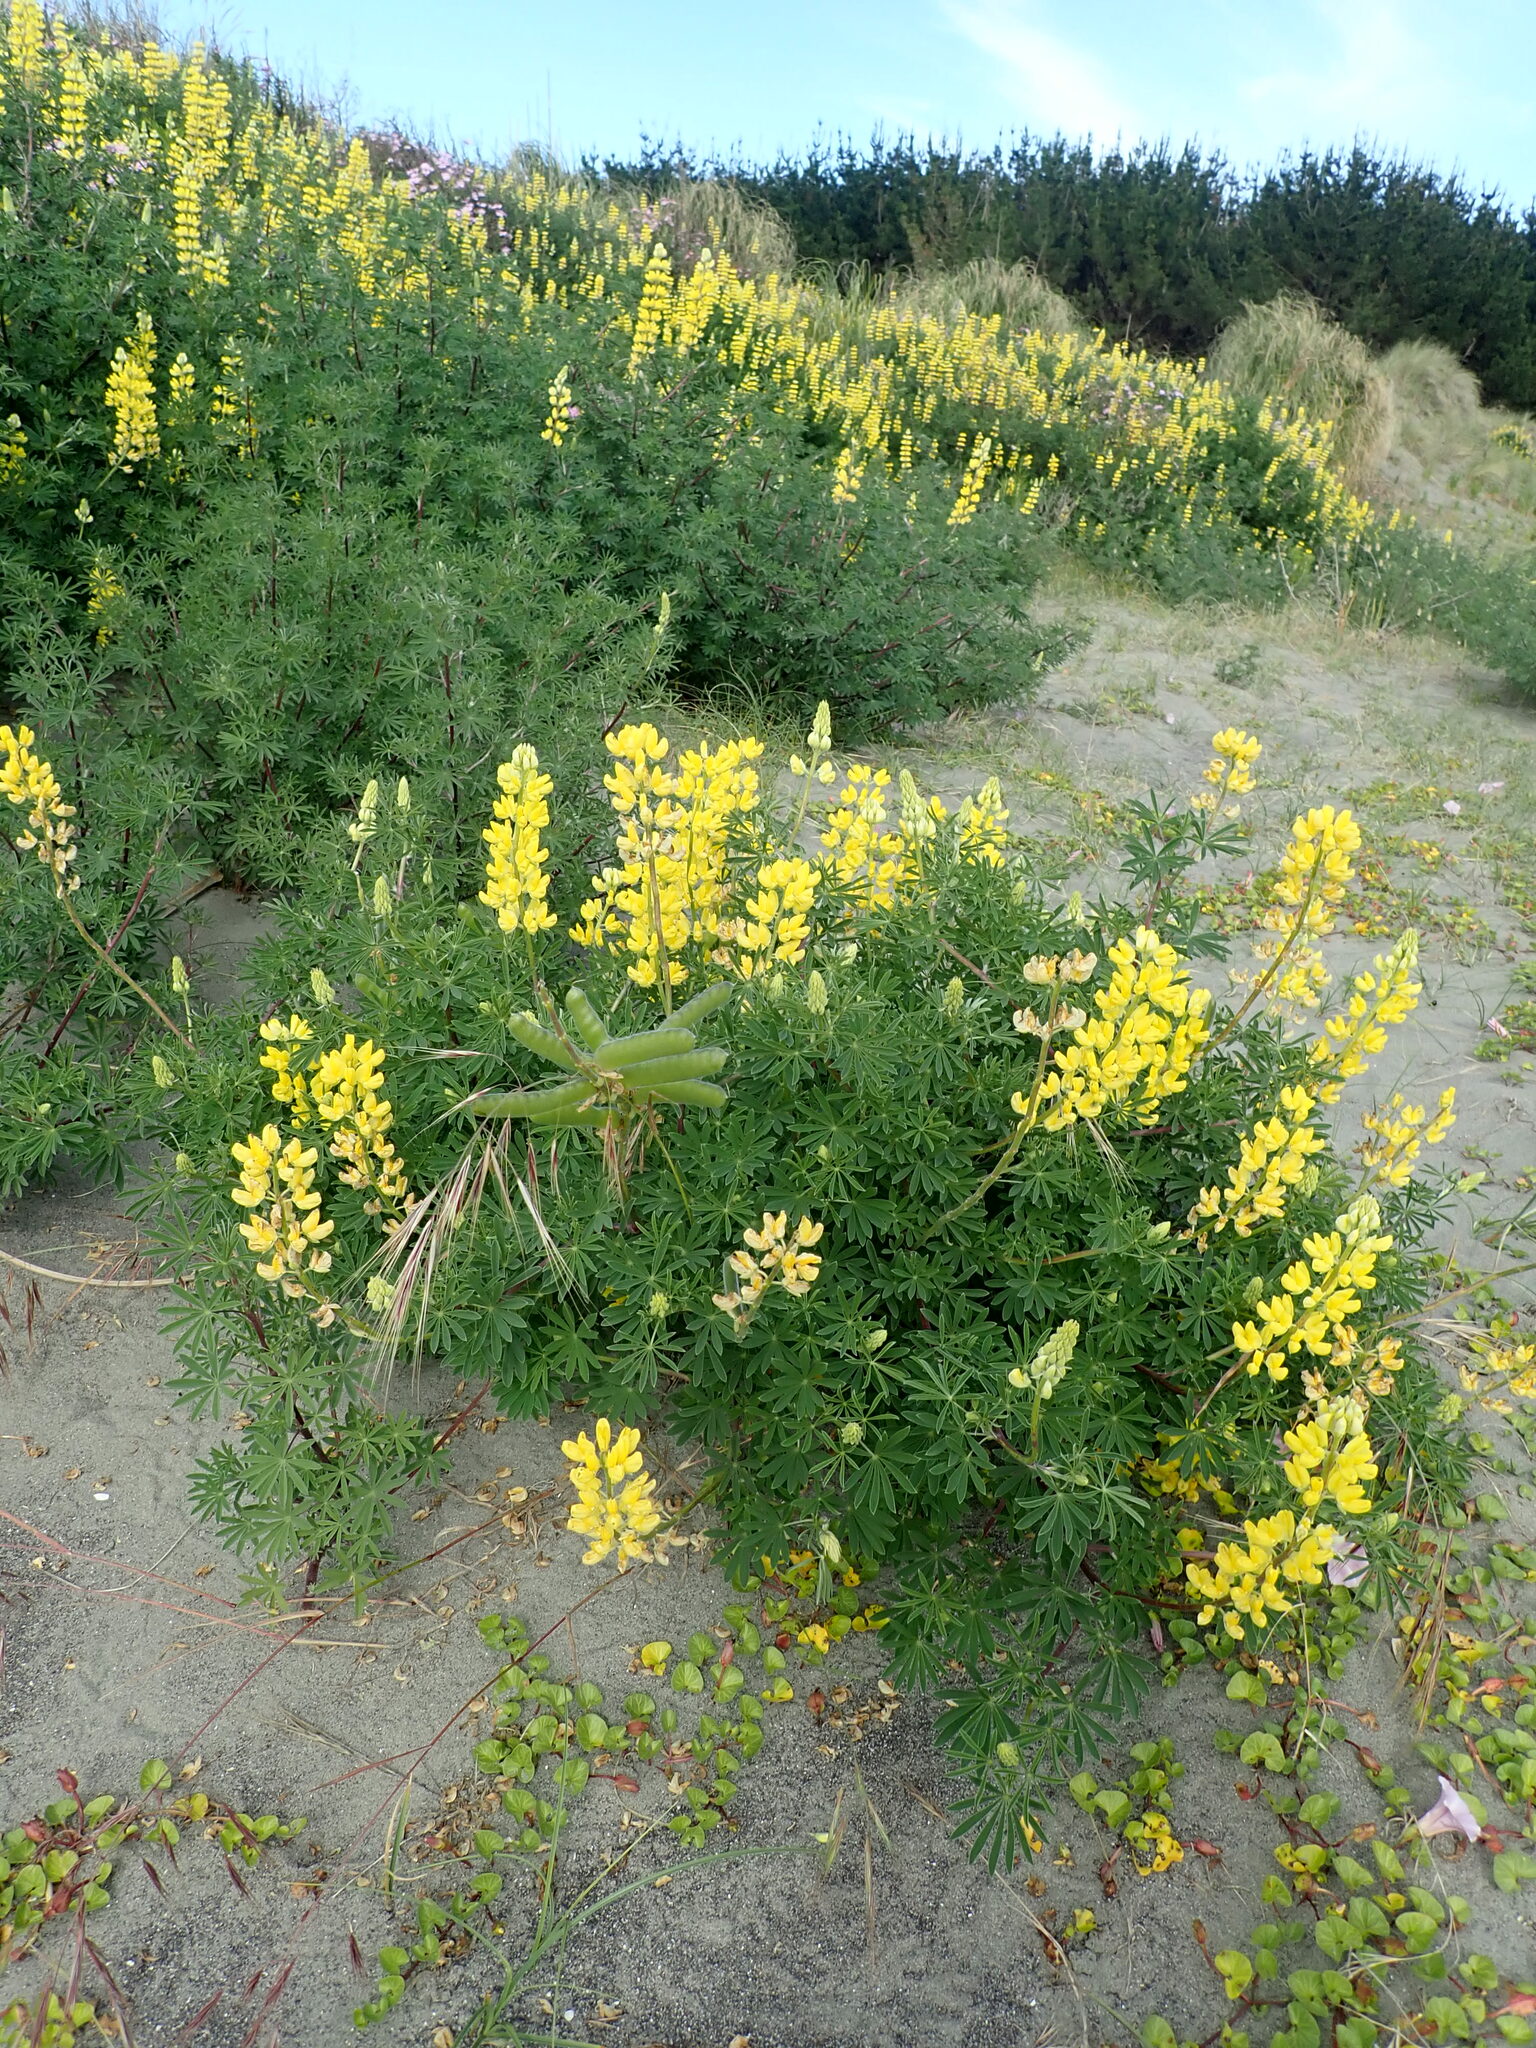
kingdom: Plantae
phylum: Tracheophyta
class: Magnoliopsida
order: Fabales
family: Fabaceae
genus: Lupinus
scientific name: Lupinus arboreus
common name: Yellow bush lupine
